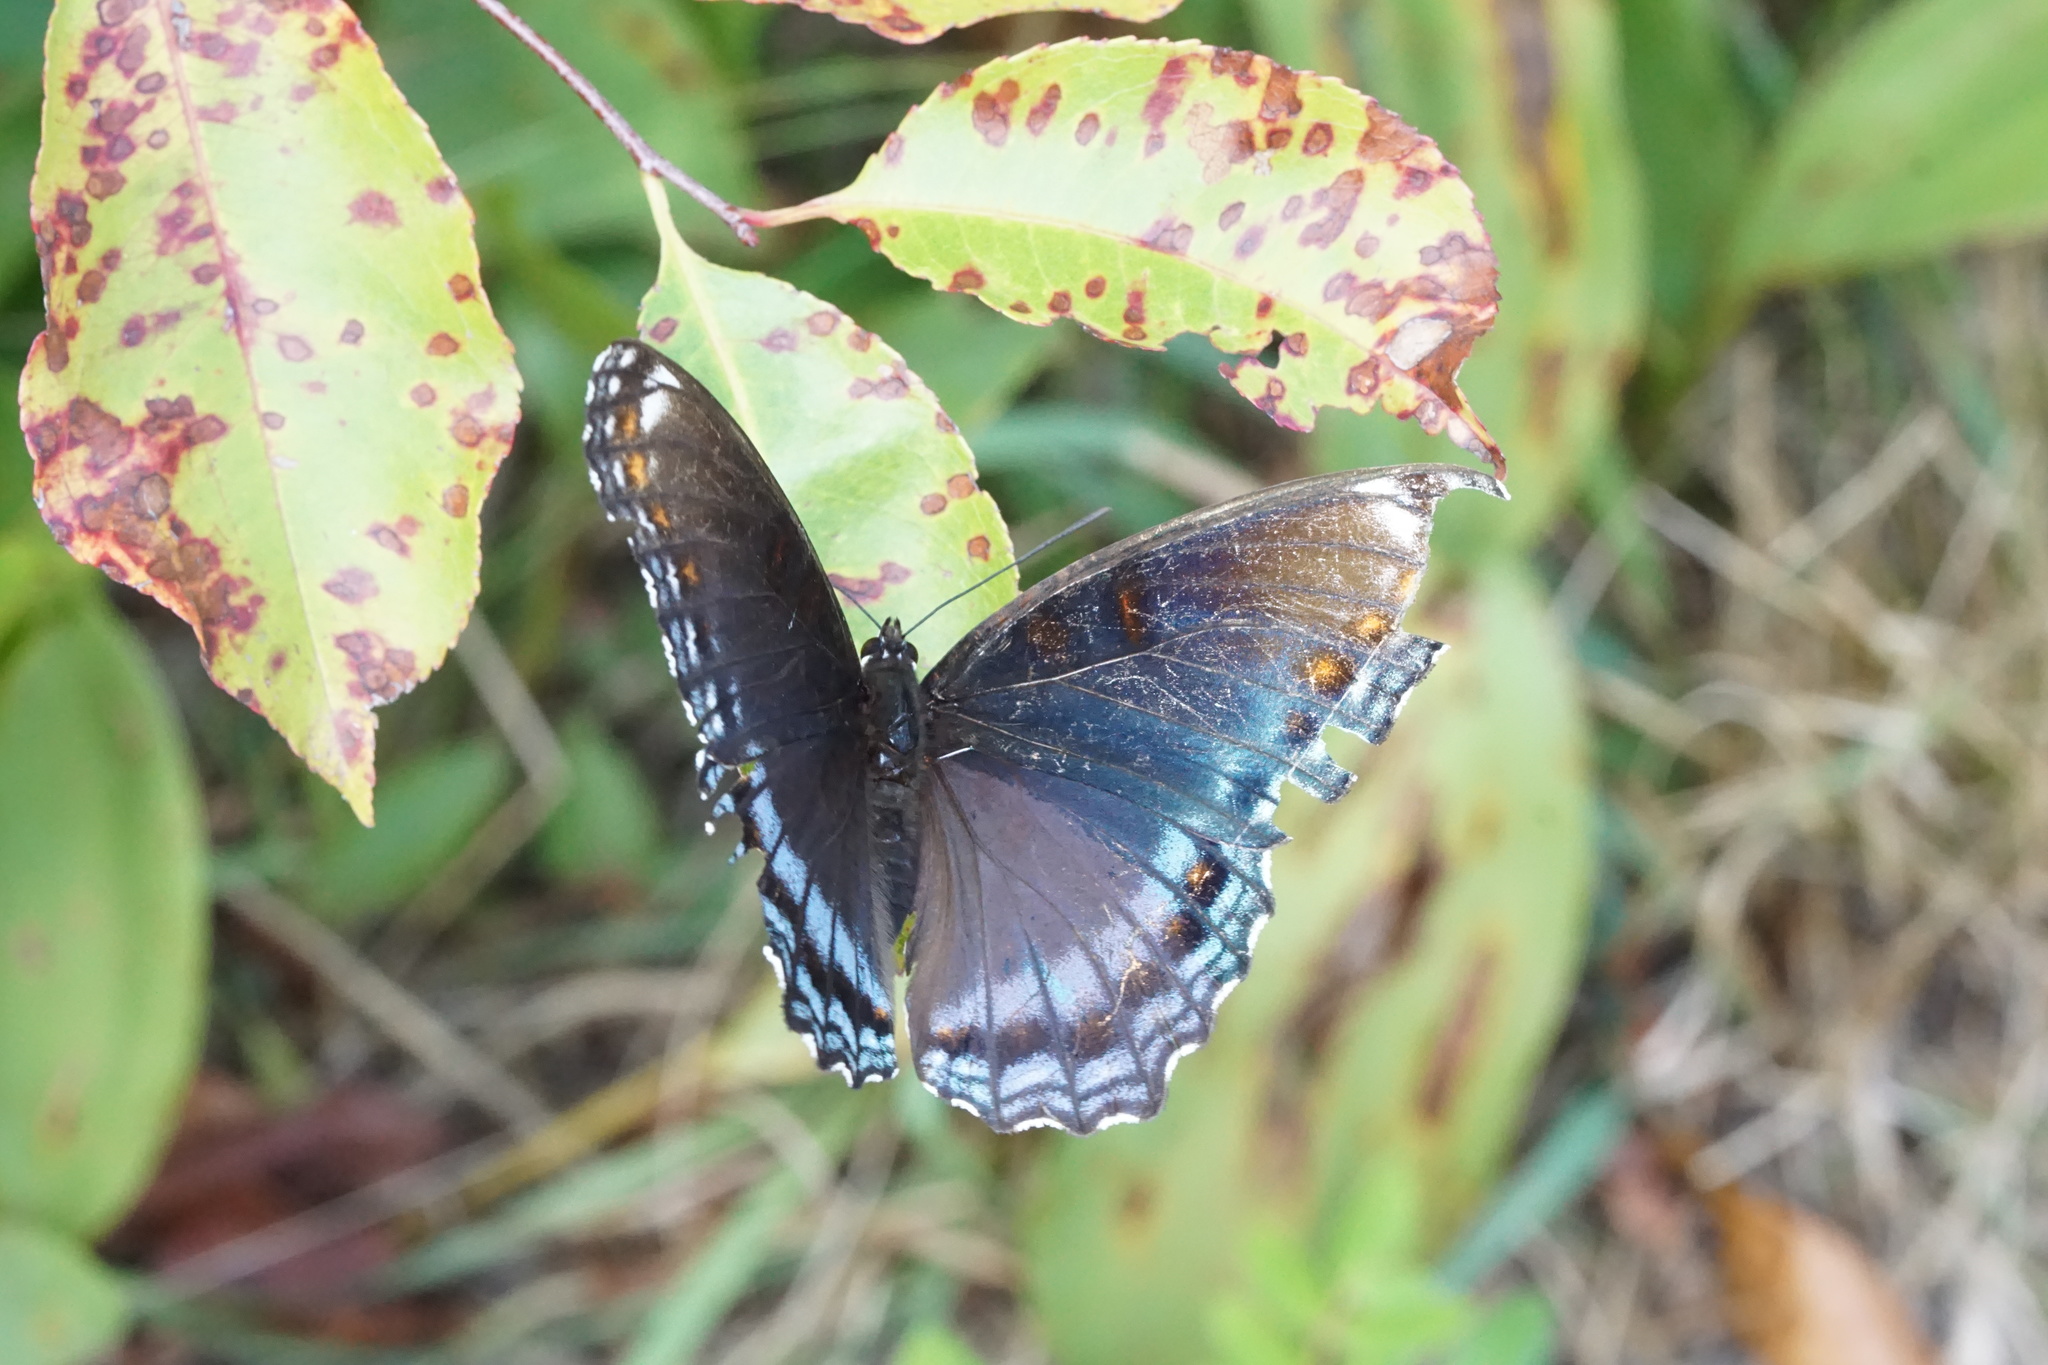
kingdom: Animalia
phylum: Arthropoda
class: Insecta
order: Lepidoptera
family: Nymphalidae
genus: Limenitis
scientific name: Limenitis astyanax
